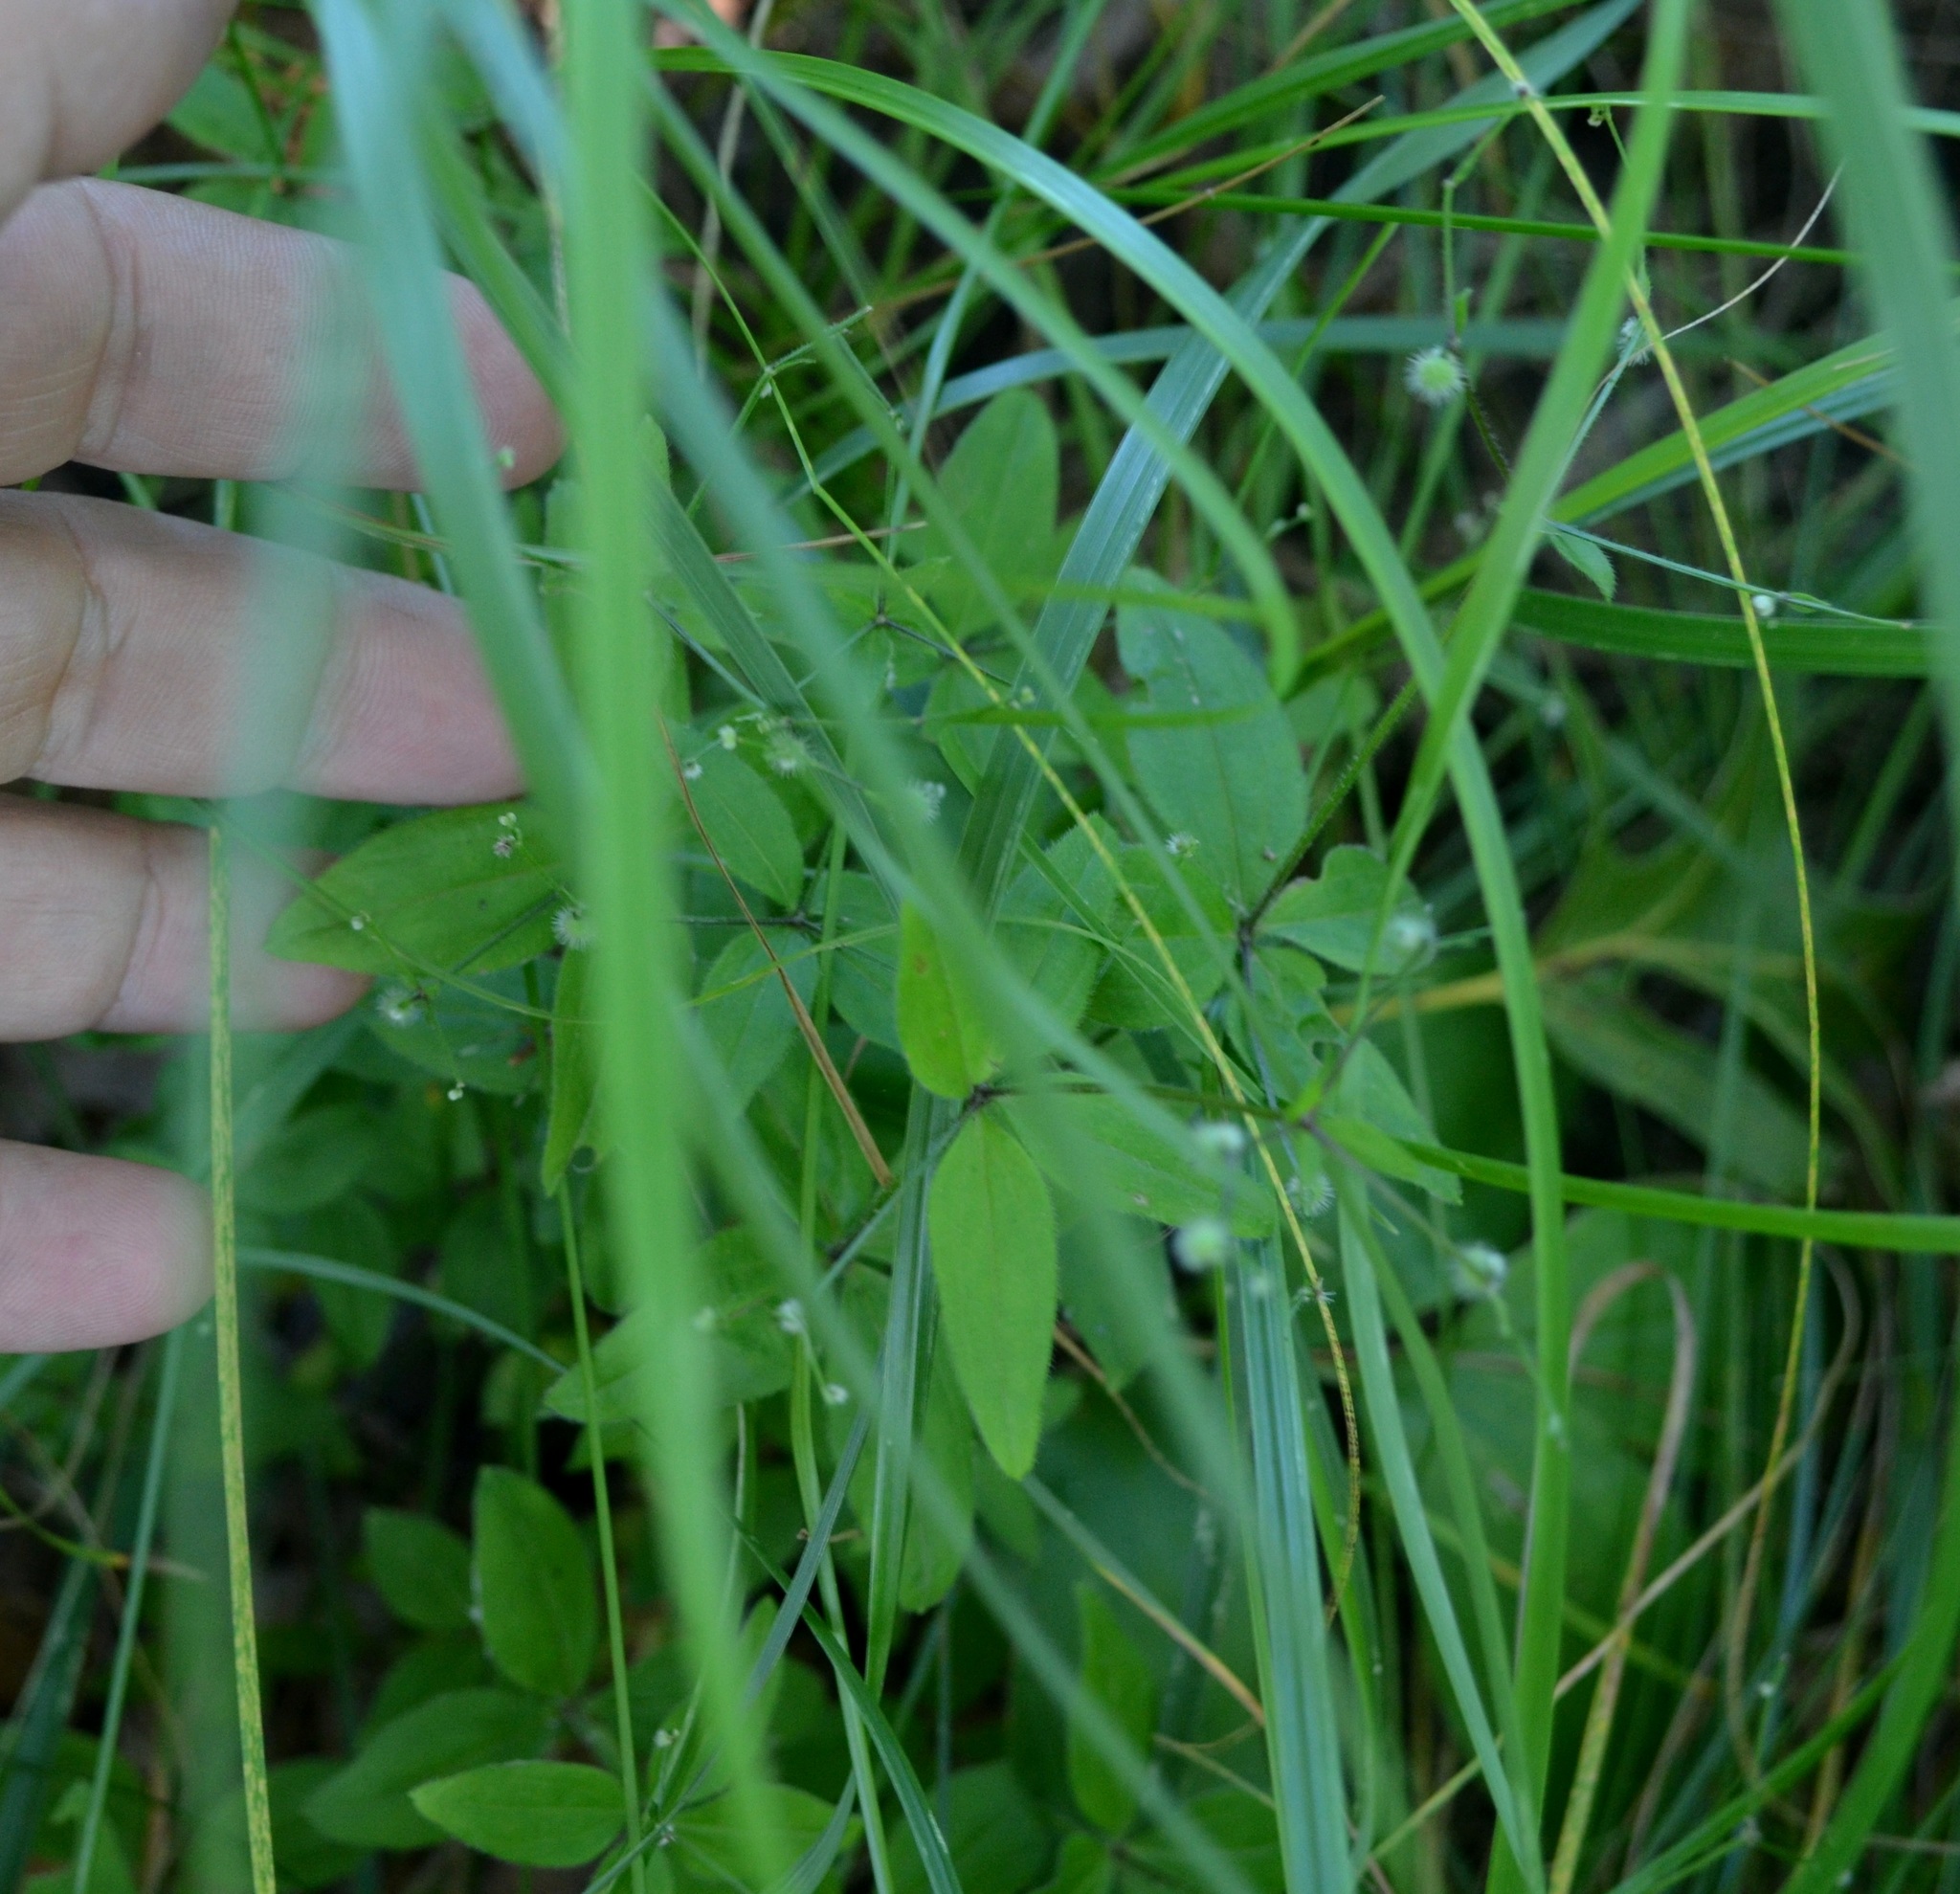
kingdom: Plantae
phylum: Tracheophyta
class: Magnoliopsida
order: Gentianales
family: Rubiaceae
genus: Galium
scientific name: Galium circaezans
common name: Forest bedstraw
